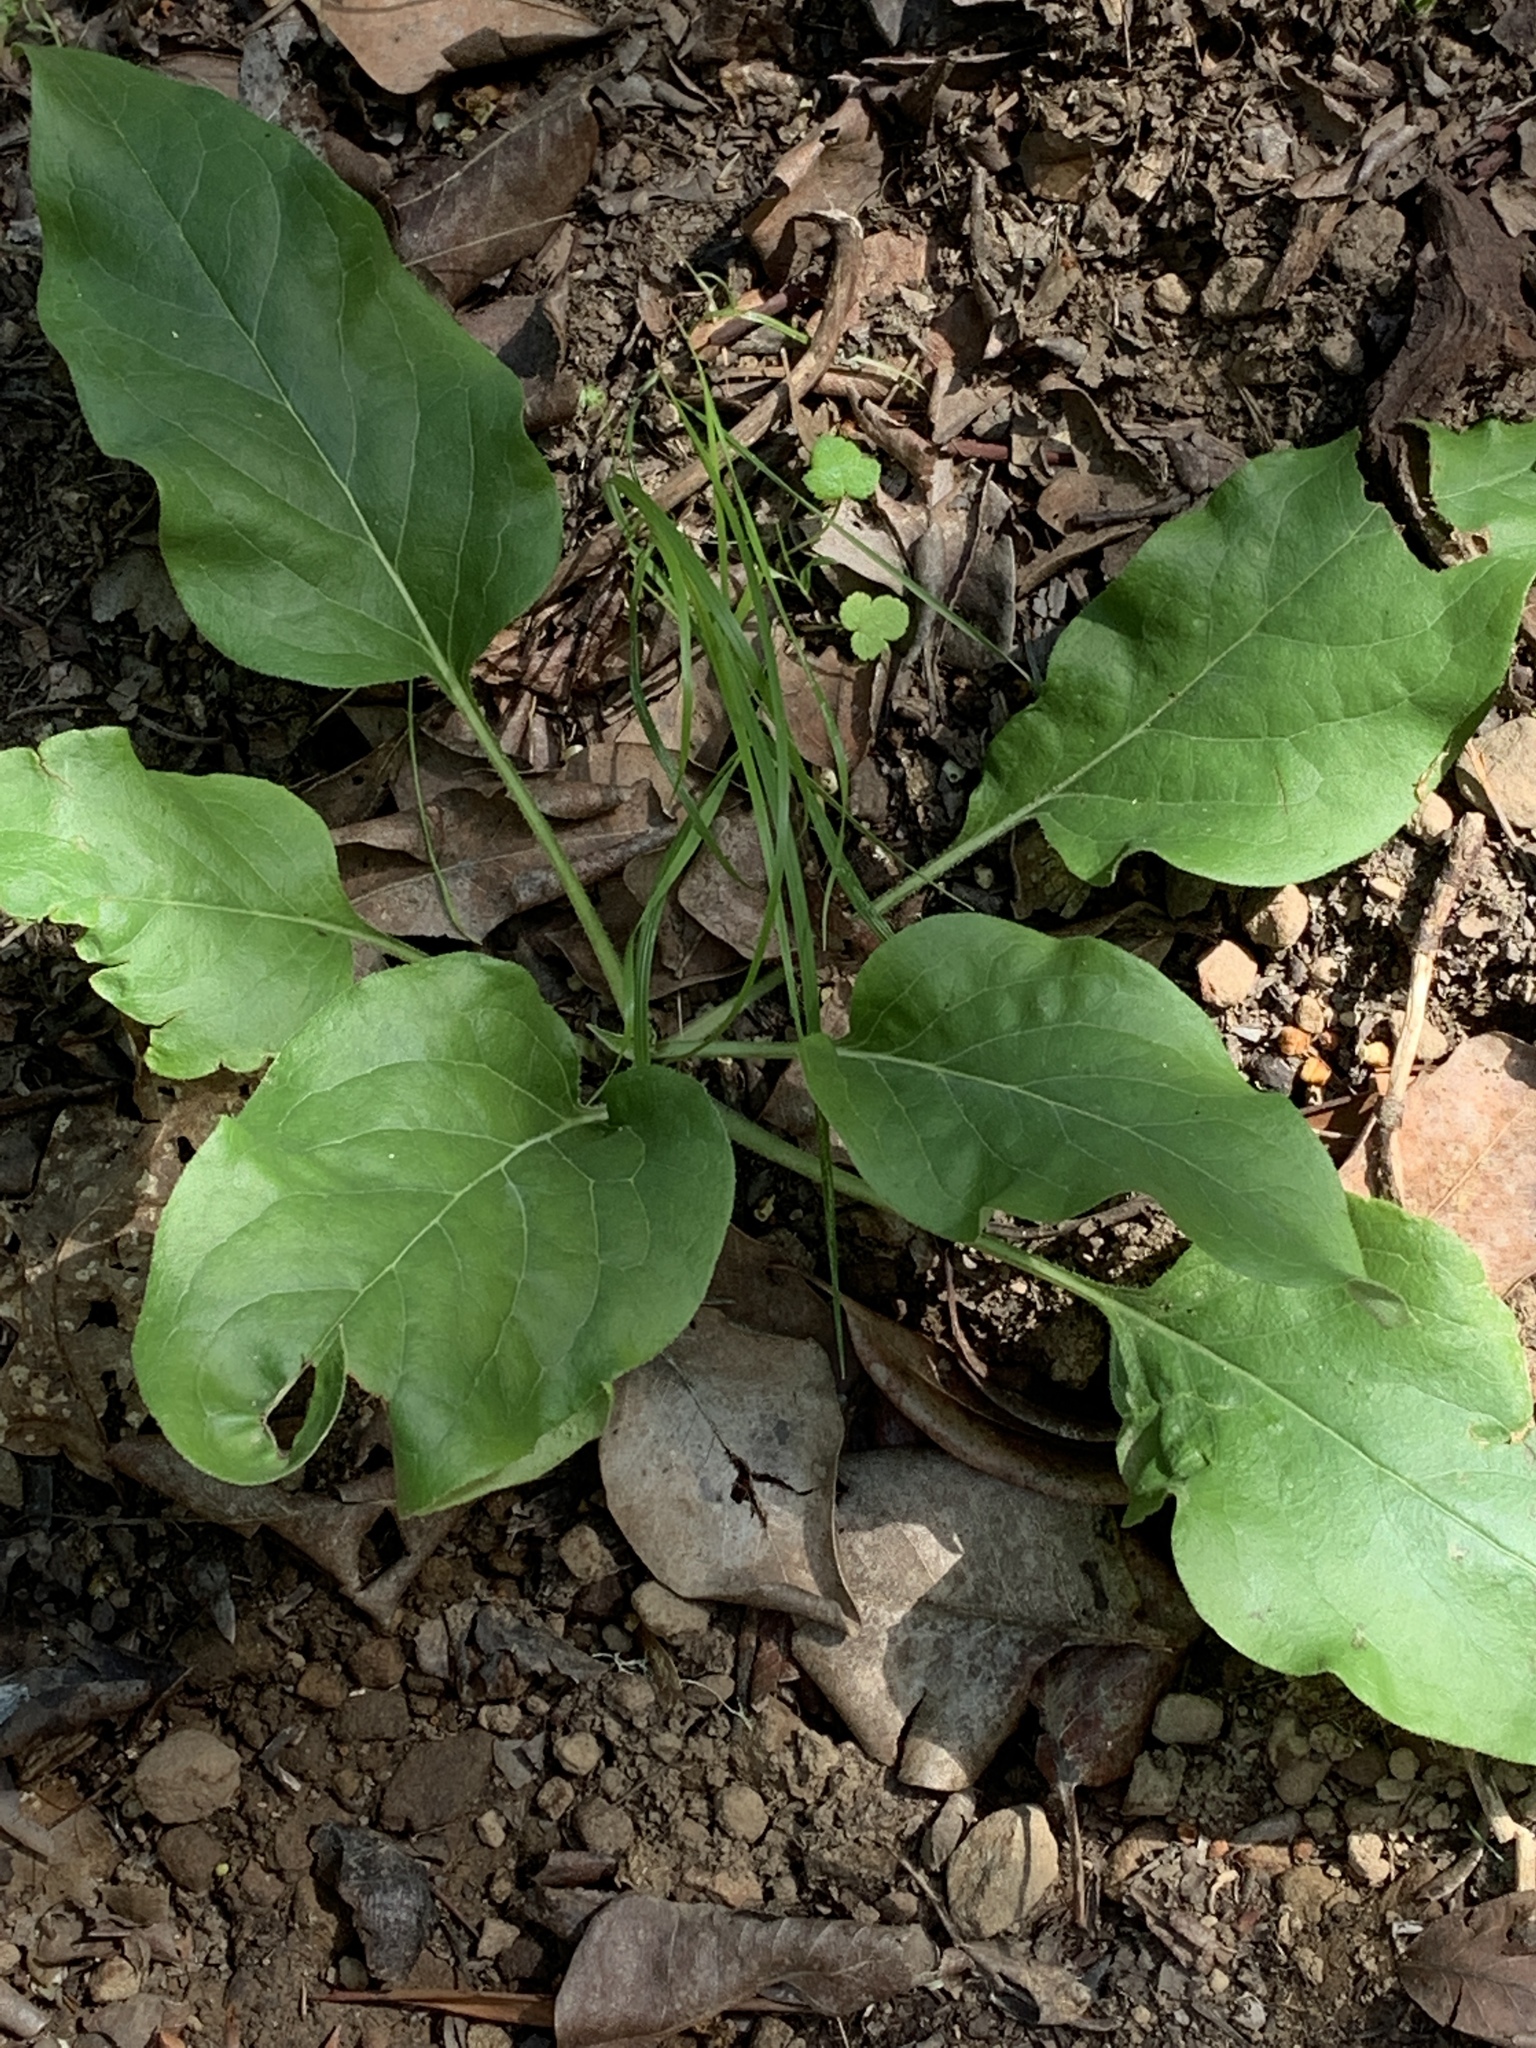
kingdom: Plantae
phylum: Tracheophyta
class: Magnoliopsida
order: Boraginales
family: Boraginaceae
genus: Adelinia
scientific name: Adelinia grande
